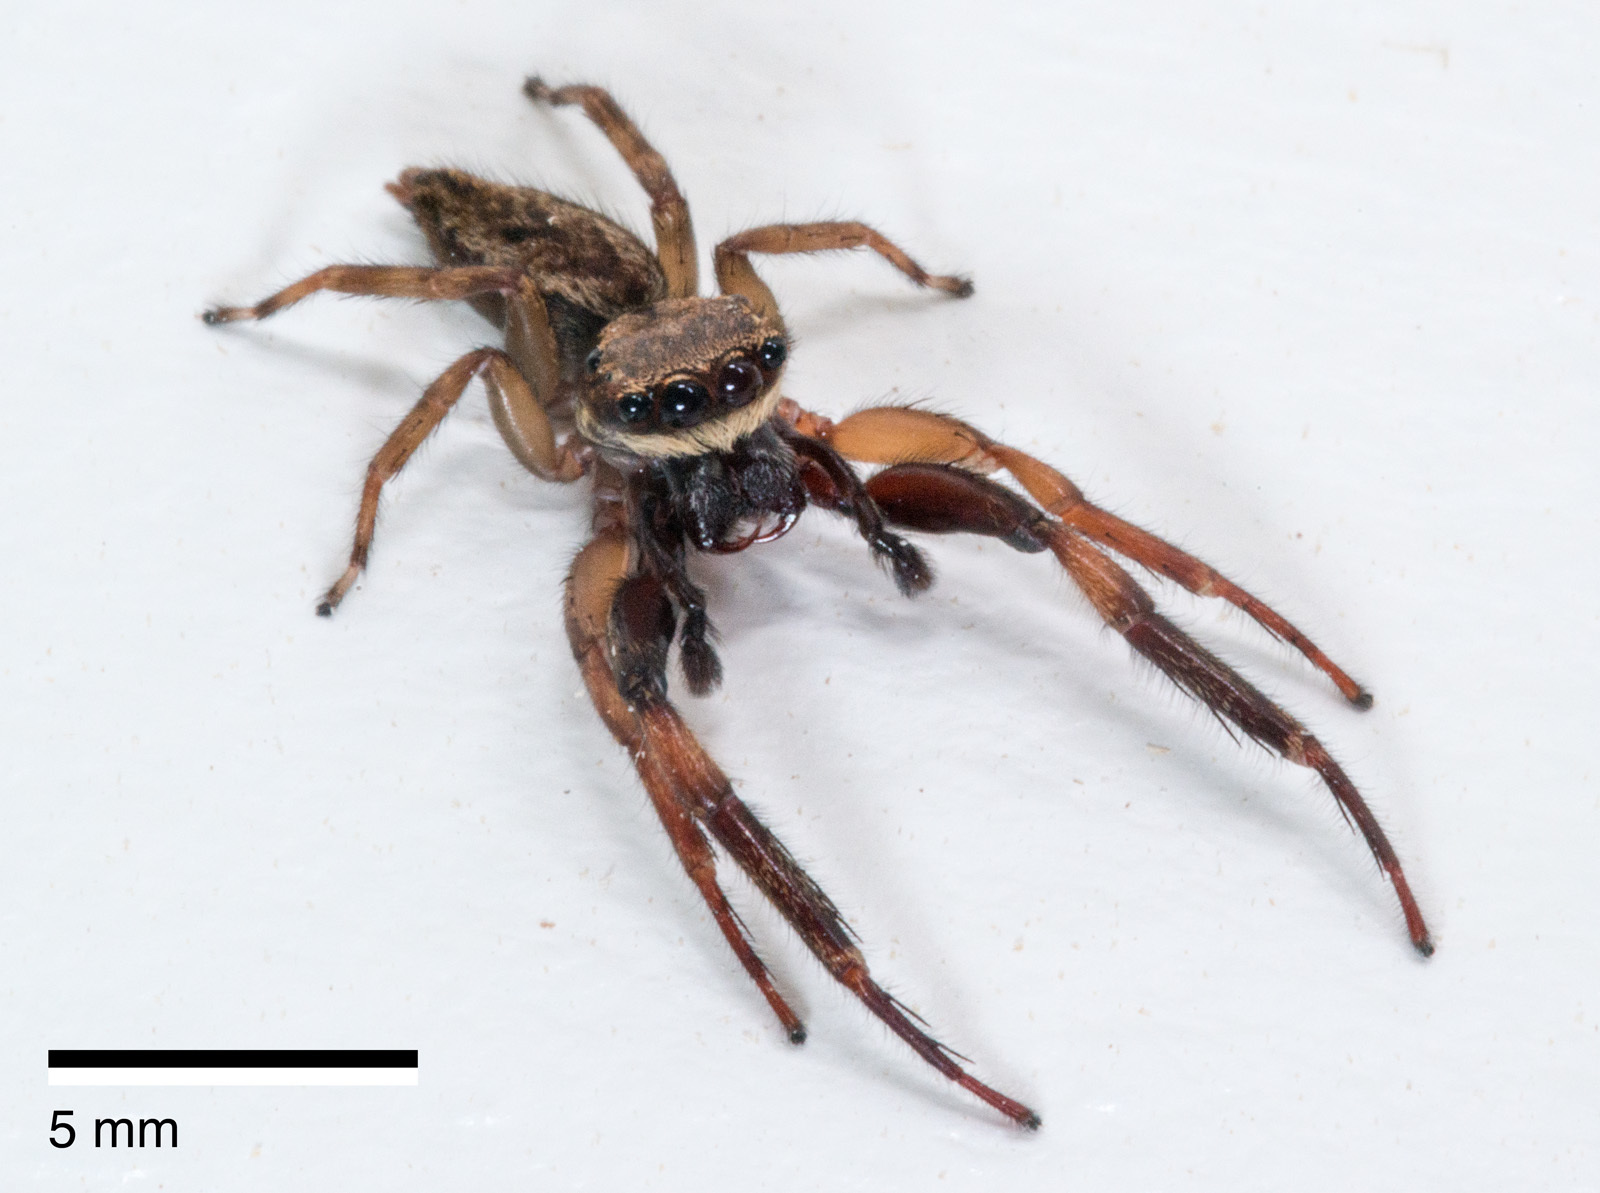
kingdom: Animalia
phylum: Arthropoda
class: Arachnida
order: Araneae
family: Salticidae
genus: Trite
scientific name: Trite auricoma
